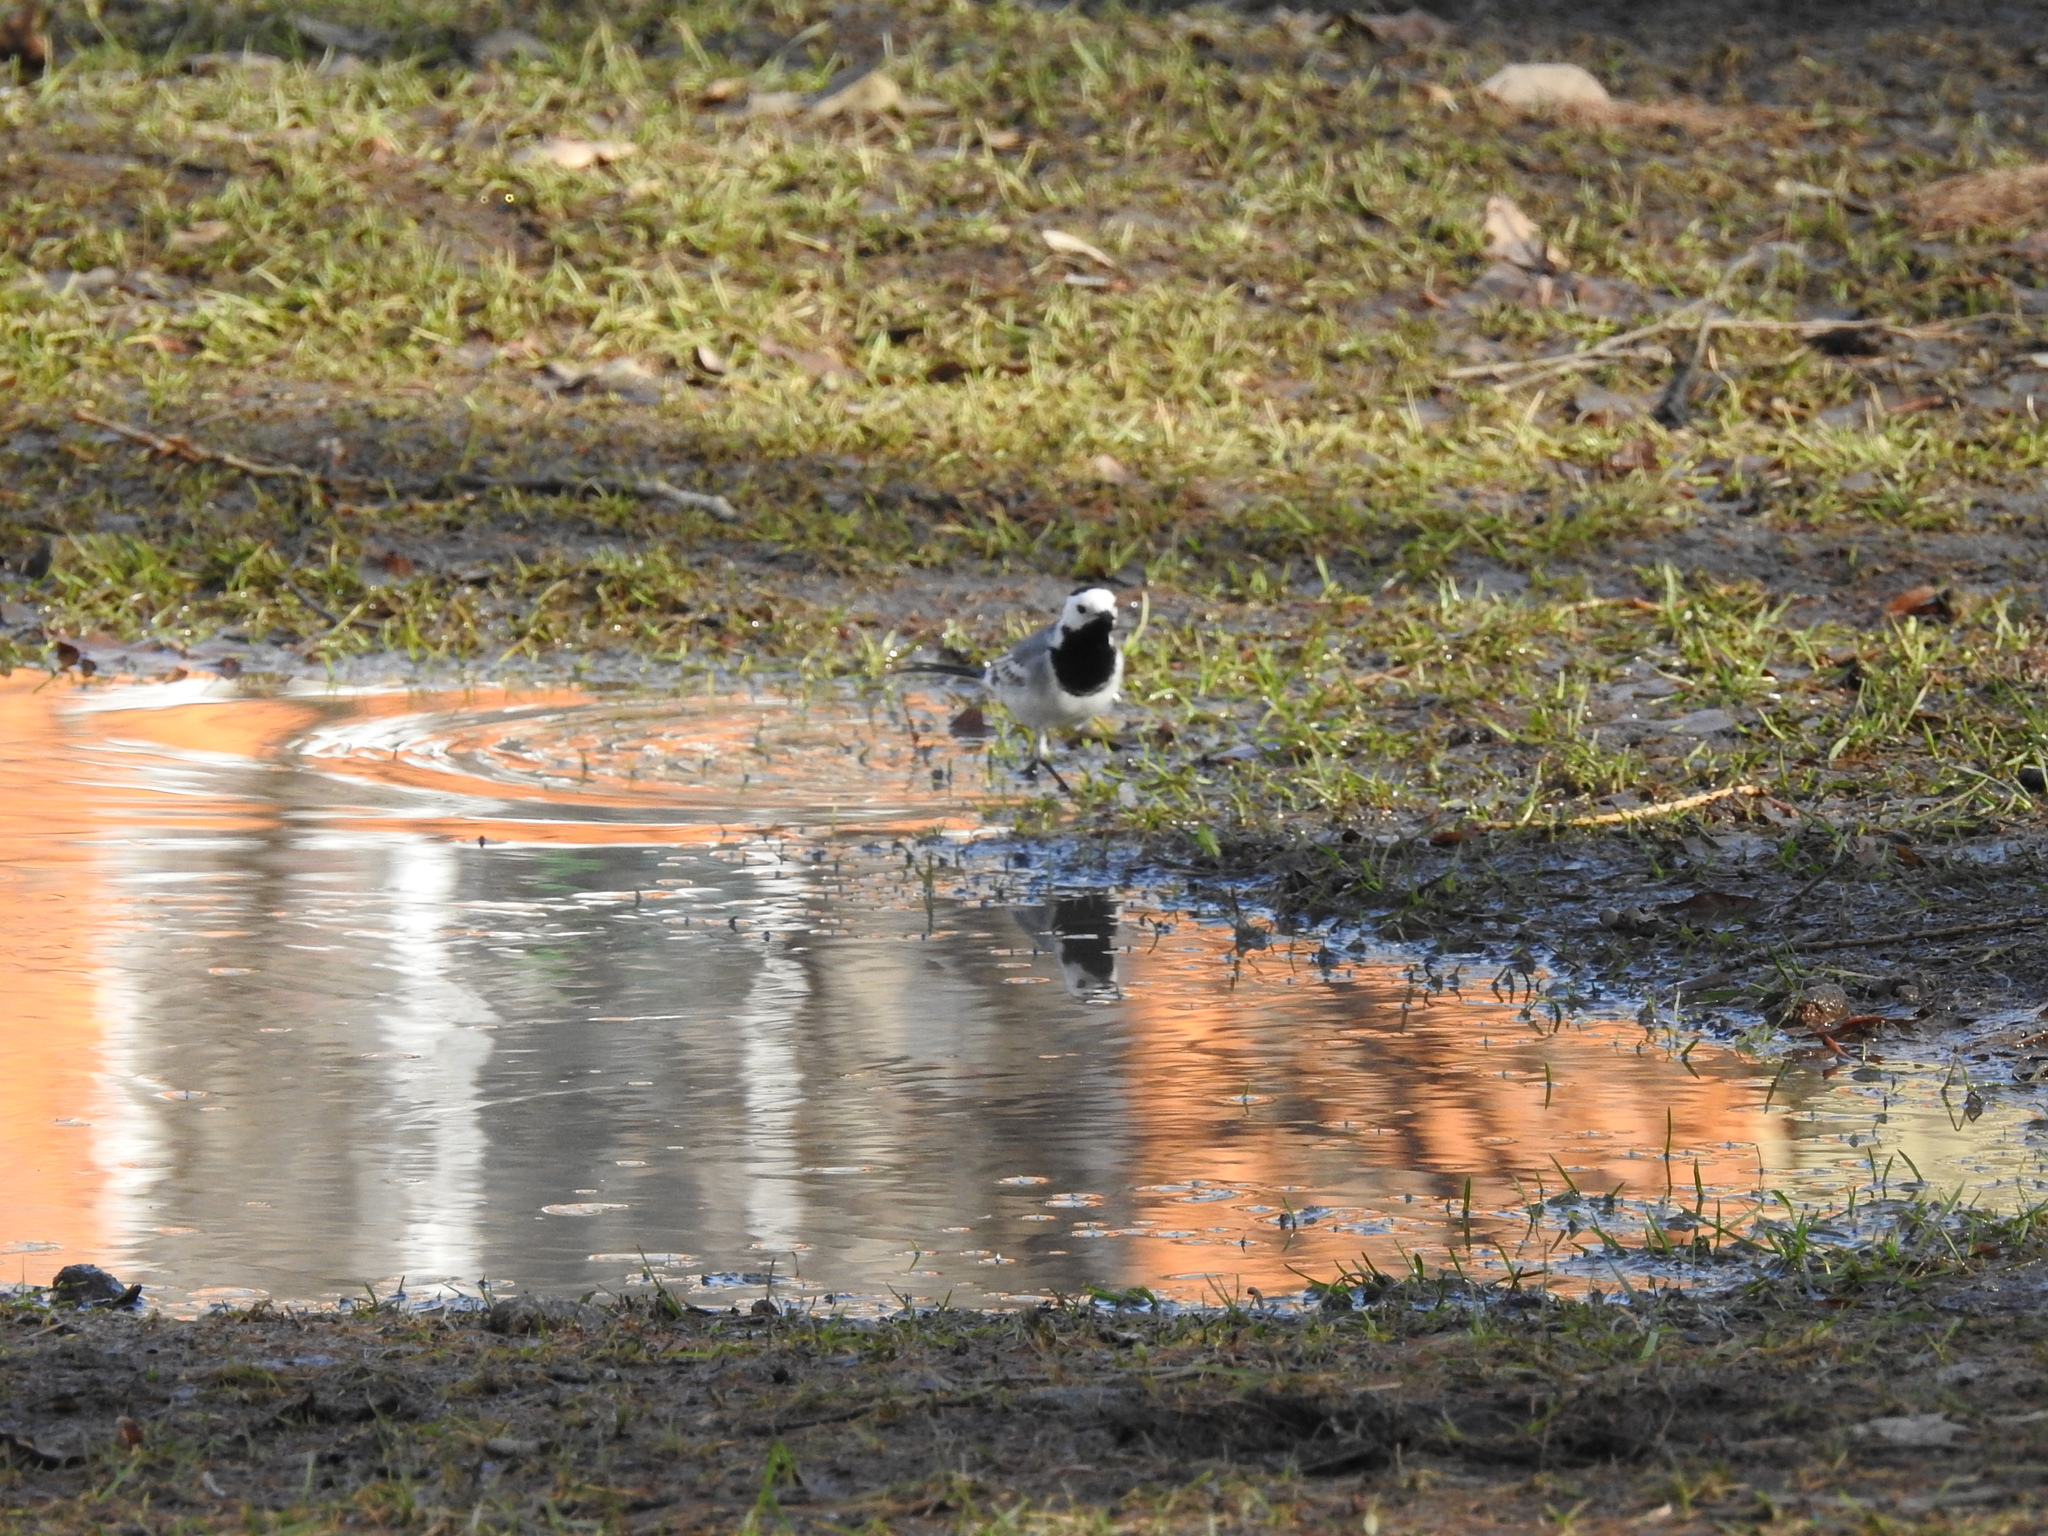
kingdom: Animalia
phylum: Chordata
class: Aves
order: Passeriformes
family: Motacillidae
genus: Motacilla
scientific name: Motacilla alba
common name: White wagtail
